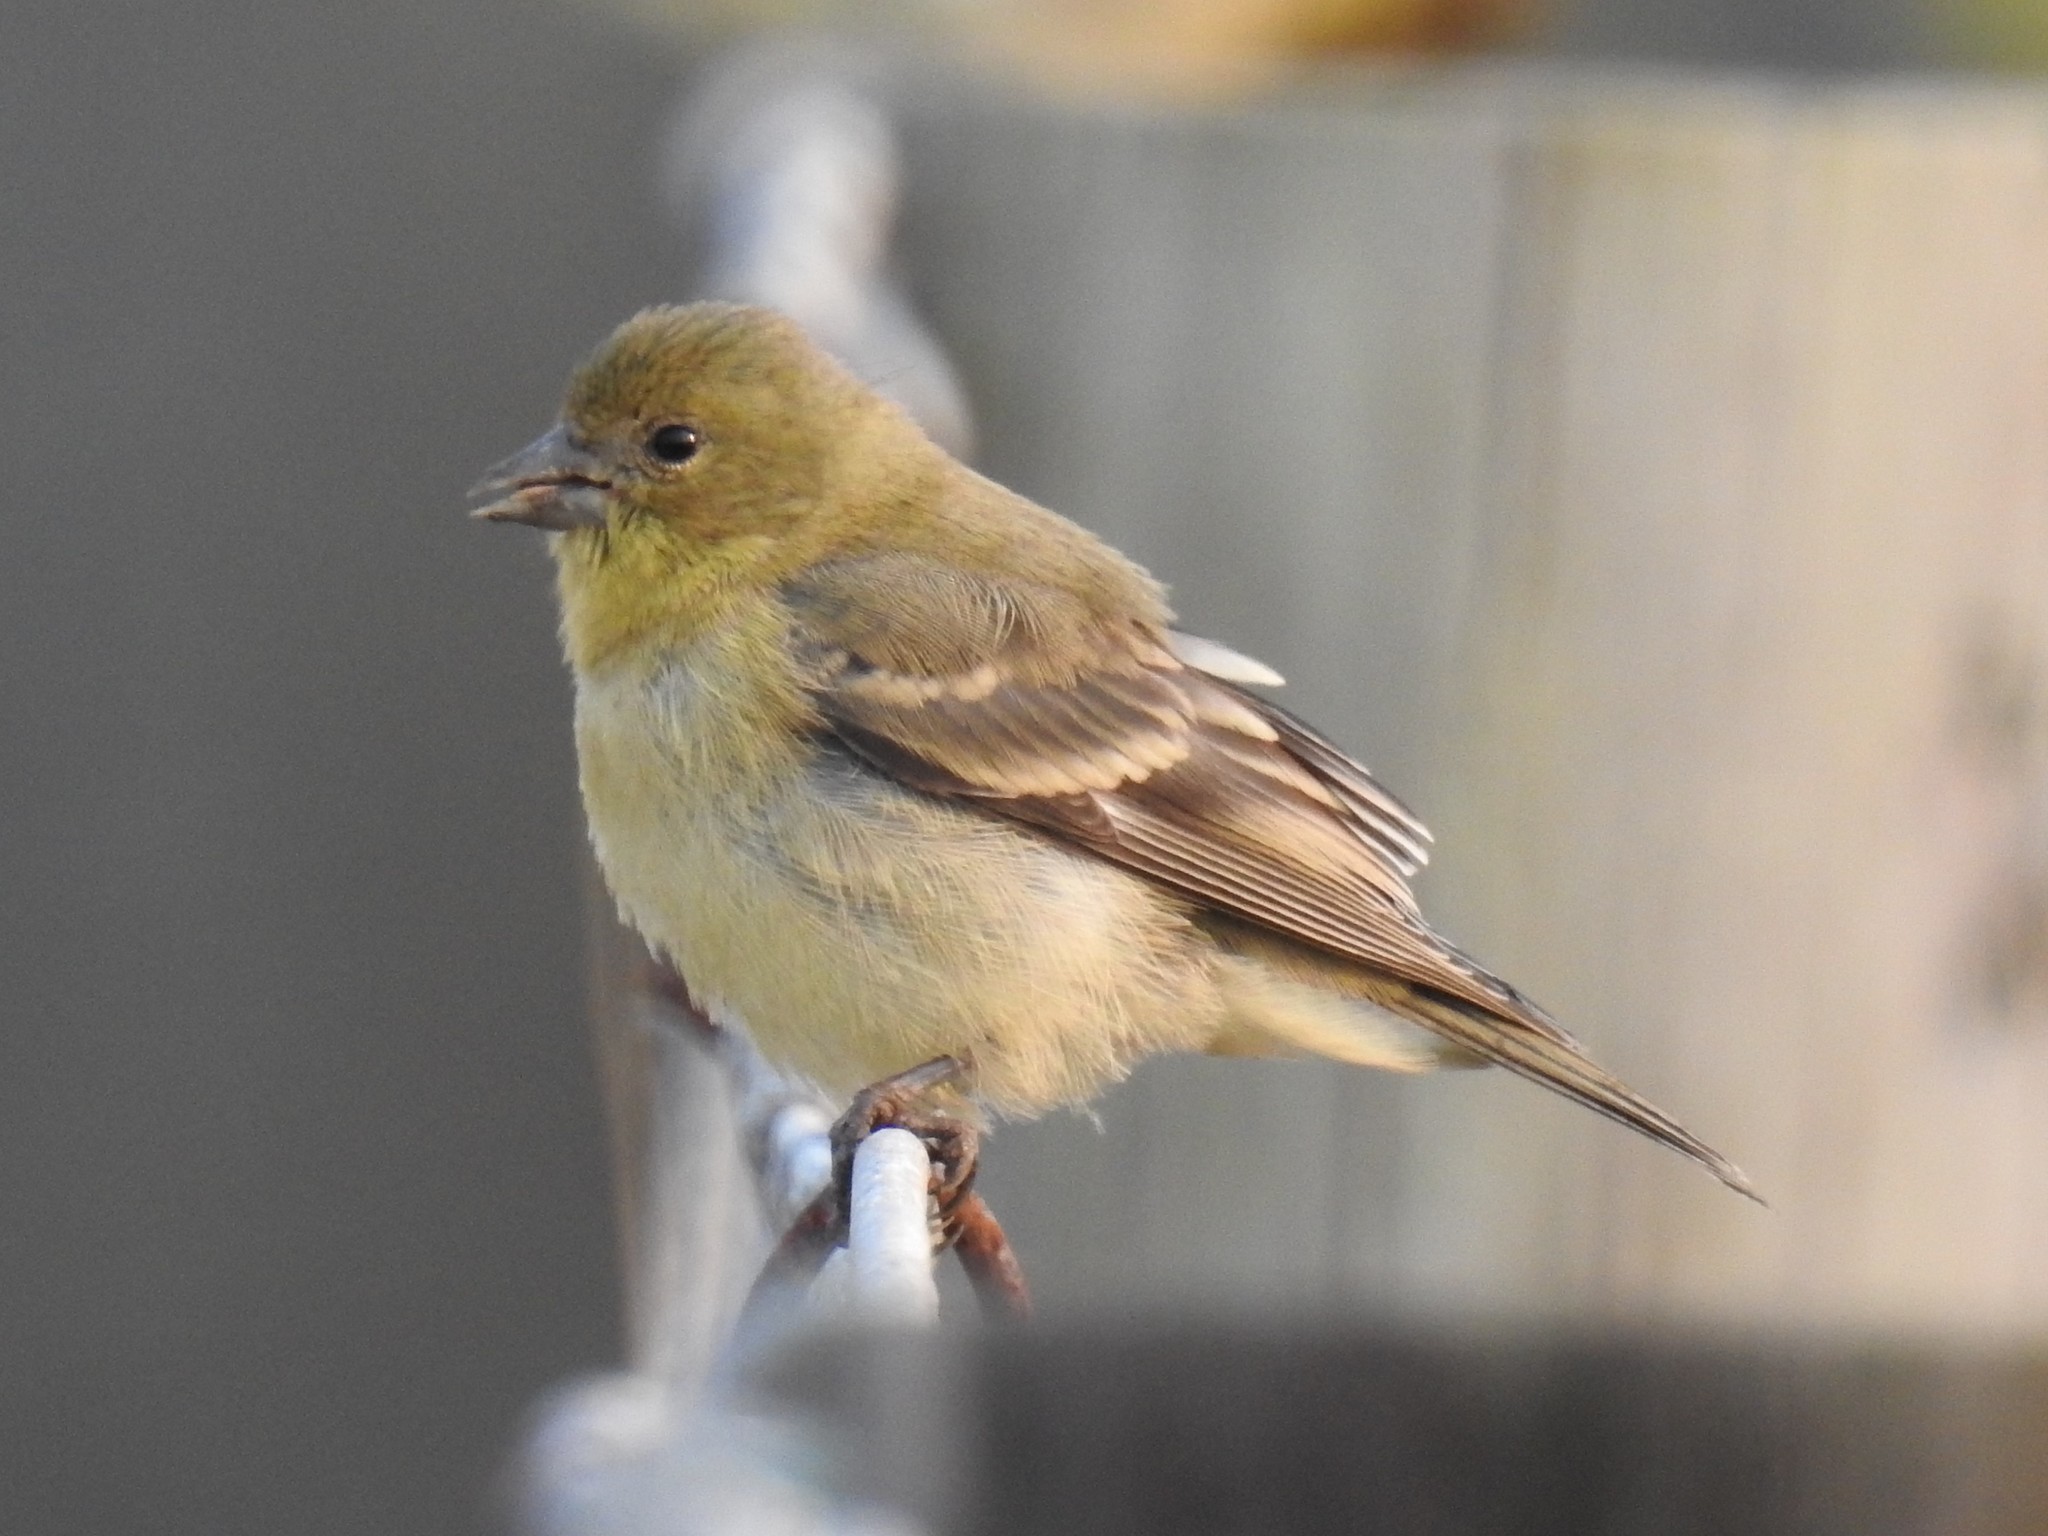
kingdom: Animalia
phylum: Chordata
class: Aves
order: Passeriformes
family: Fringillidae
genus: Spinus
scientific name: Spinus psaltria
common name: Lesser goldfinch
